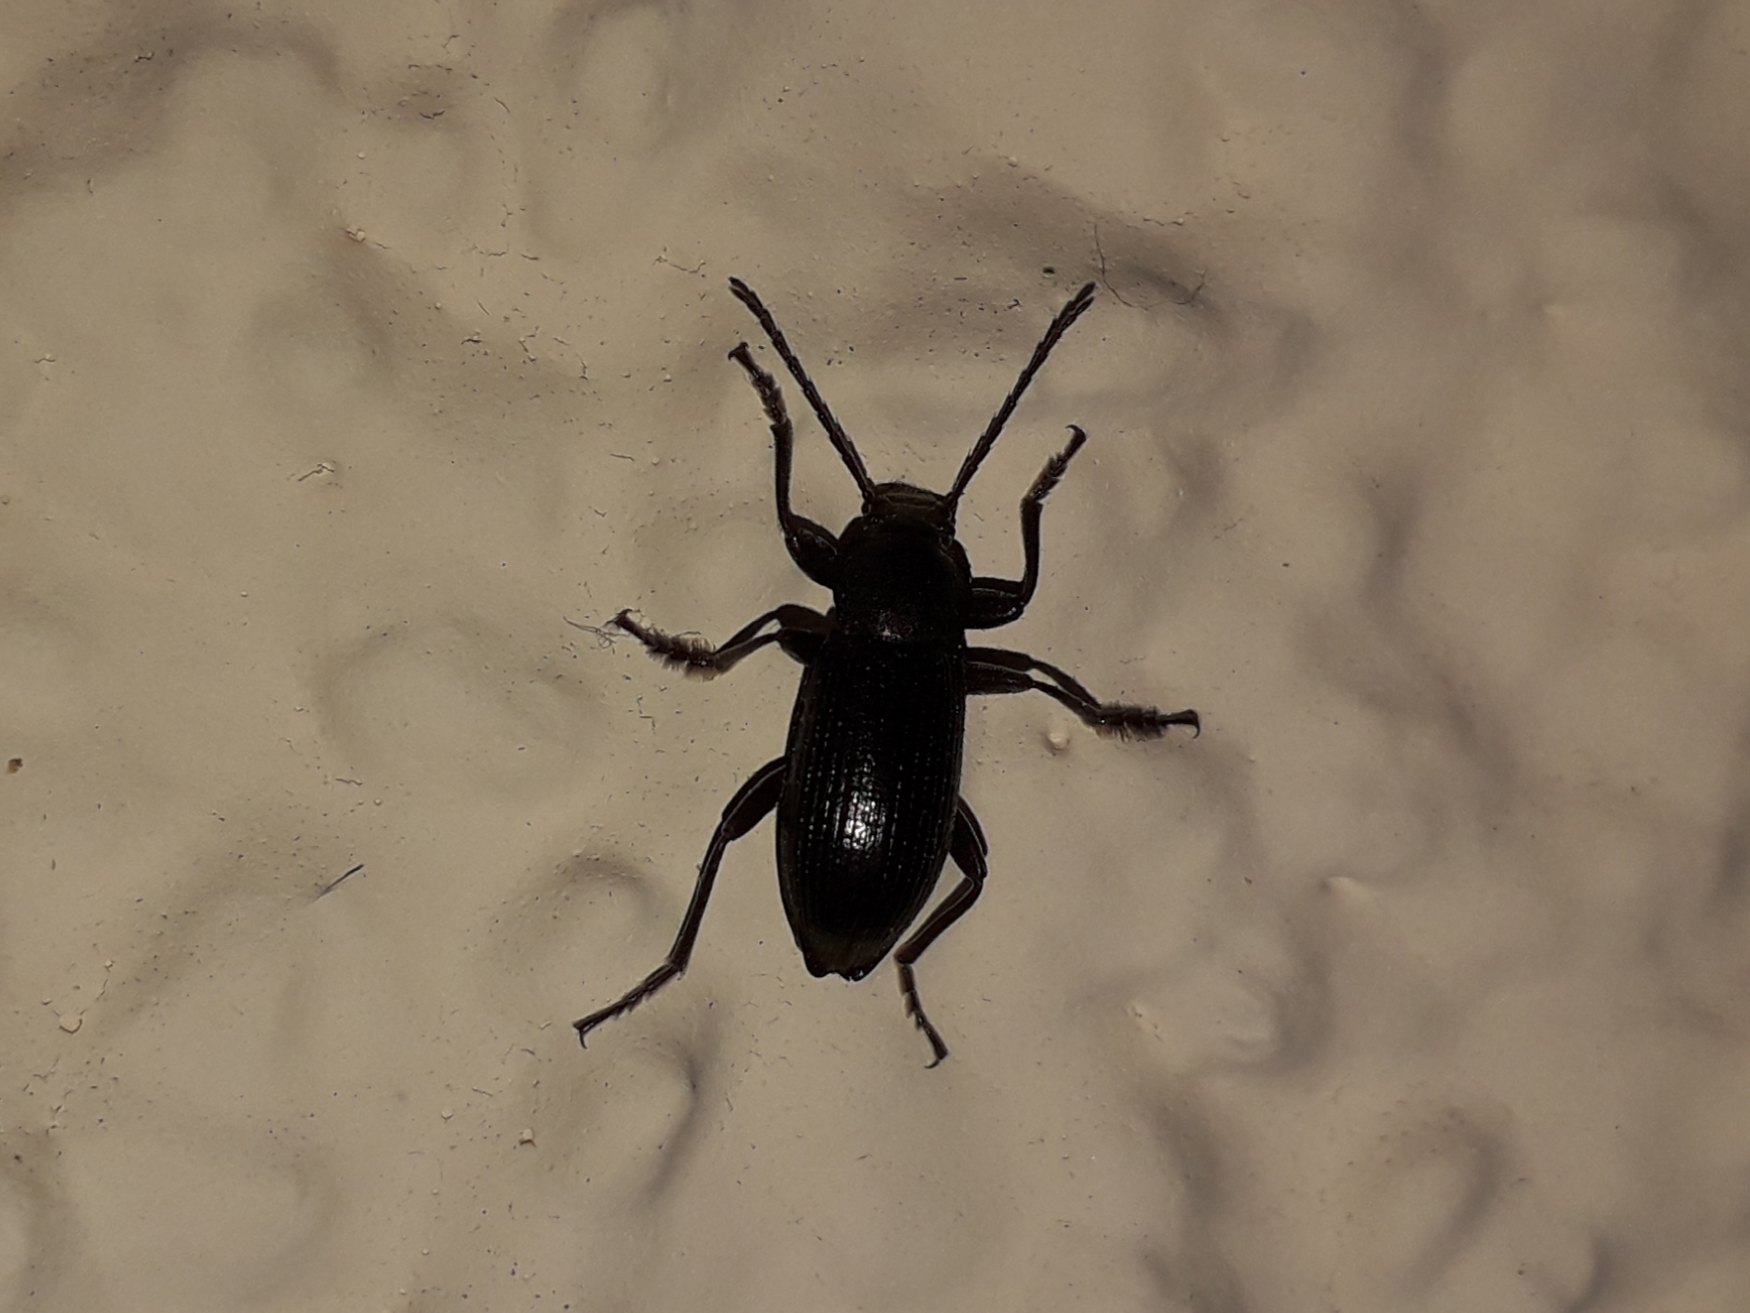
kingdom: Animalia
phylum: Arthropoda
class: Insecta
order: Coleoptera
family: Tenebrionidae
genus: Stenomax
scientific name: Stenomax aeneus
